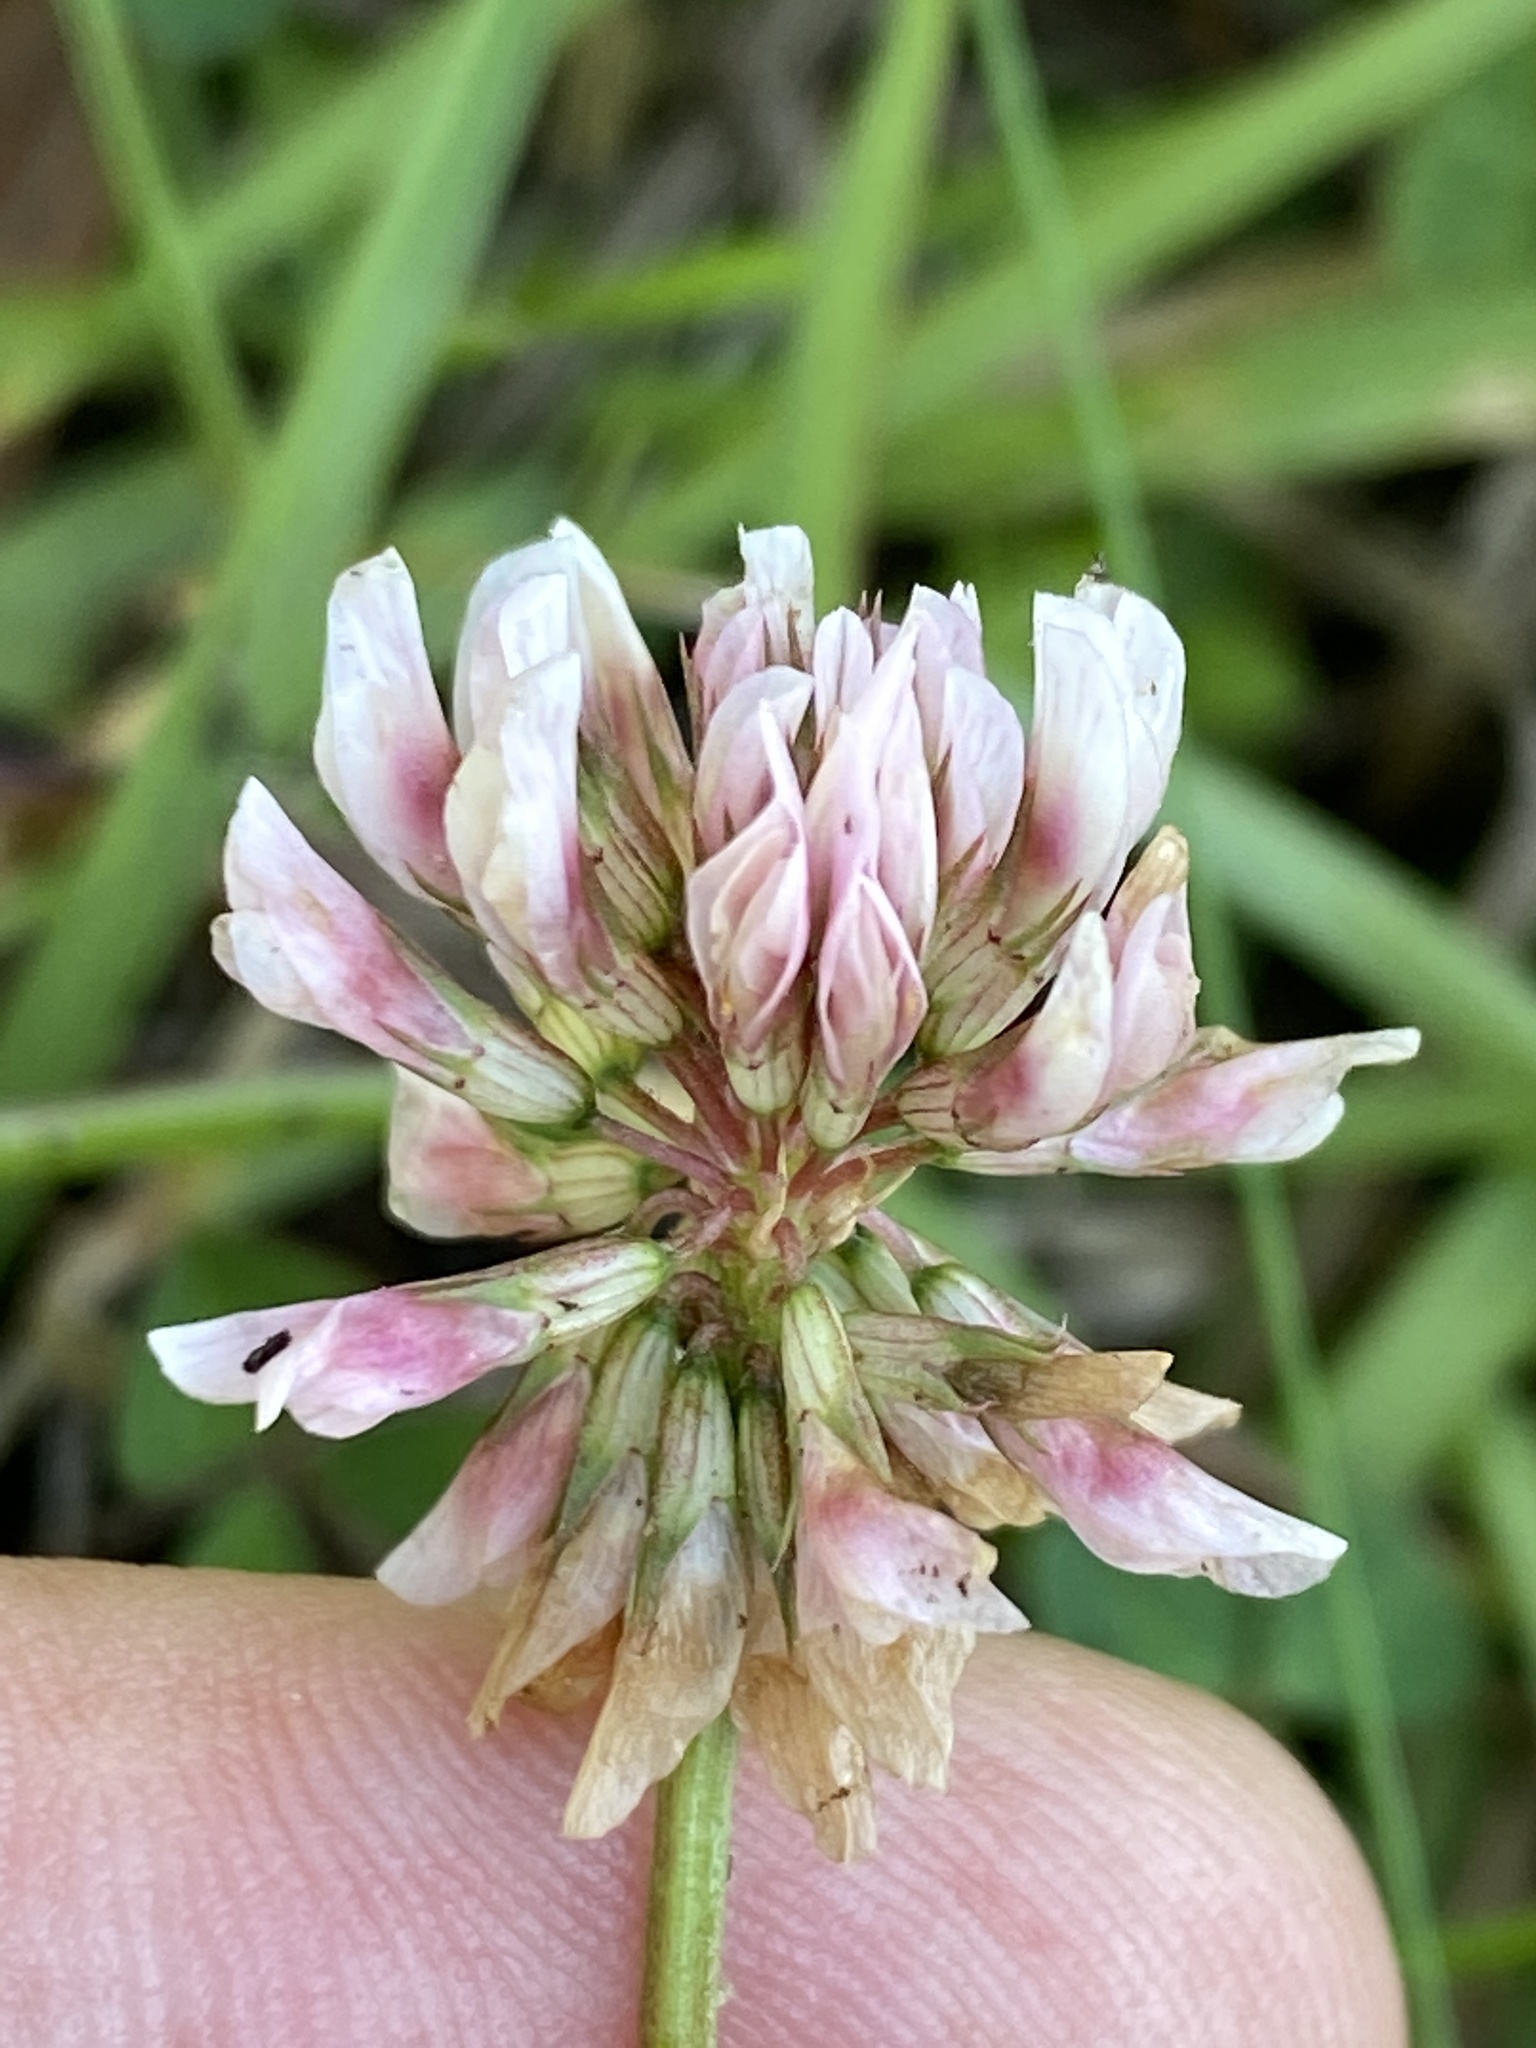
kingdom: Plantae
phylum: Tracheophyta
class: Magnoliopsida
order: Fabales
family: Fabaceae
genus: Trifolium
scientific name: Trifolium repens
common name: White clover
